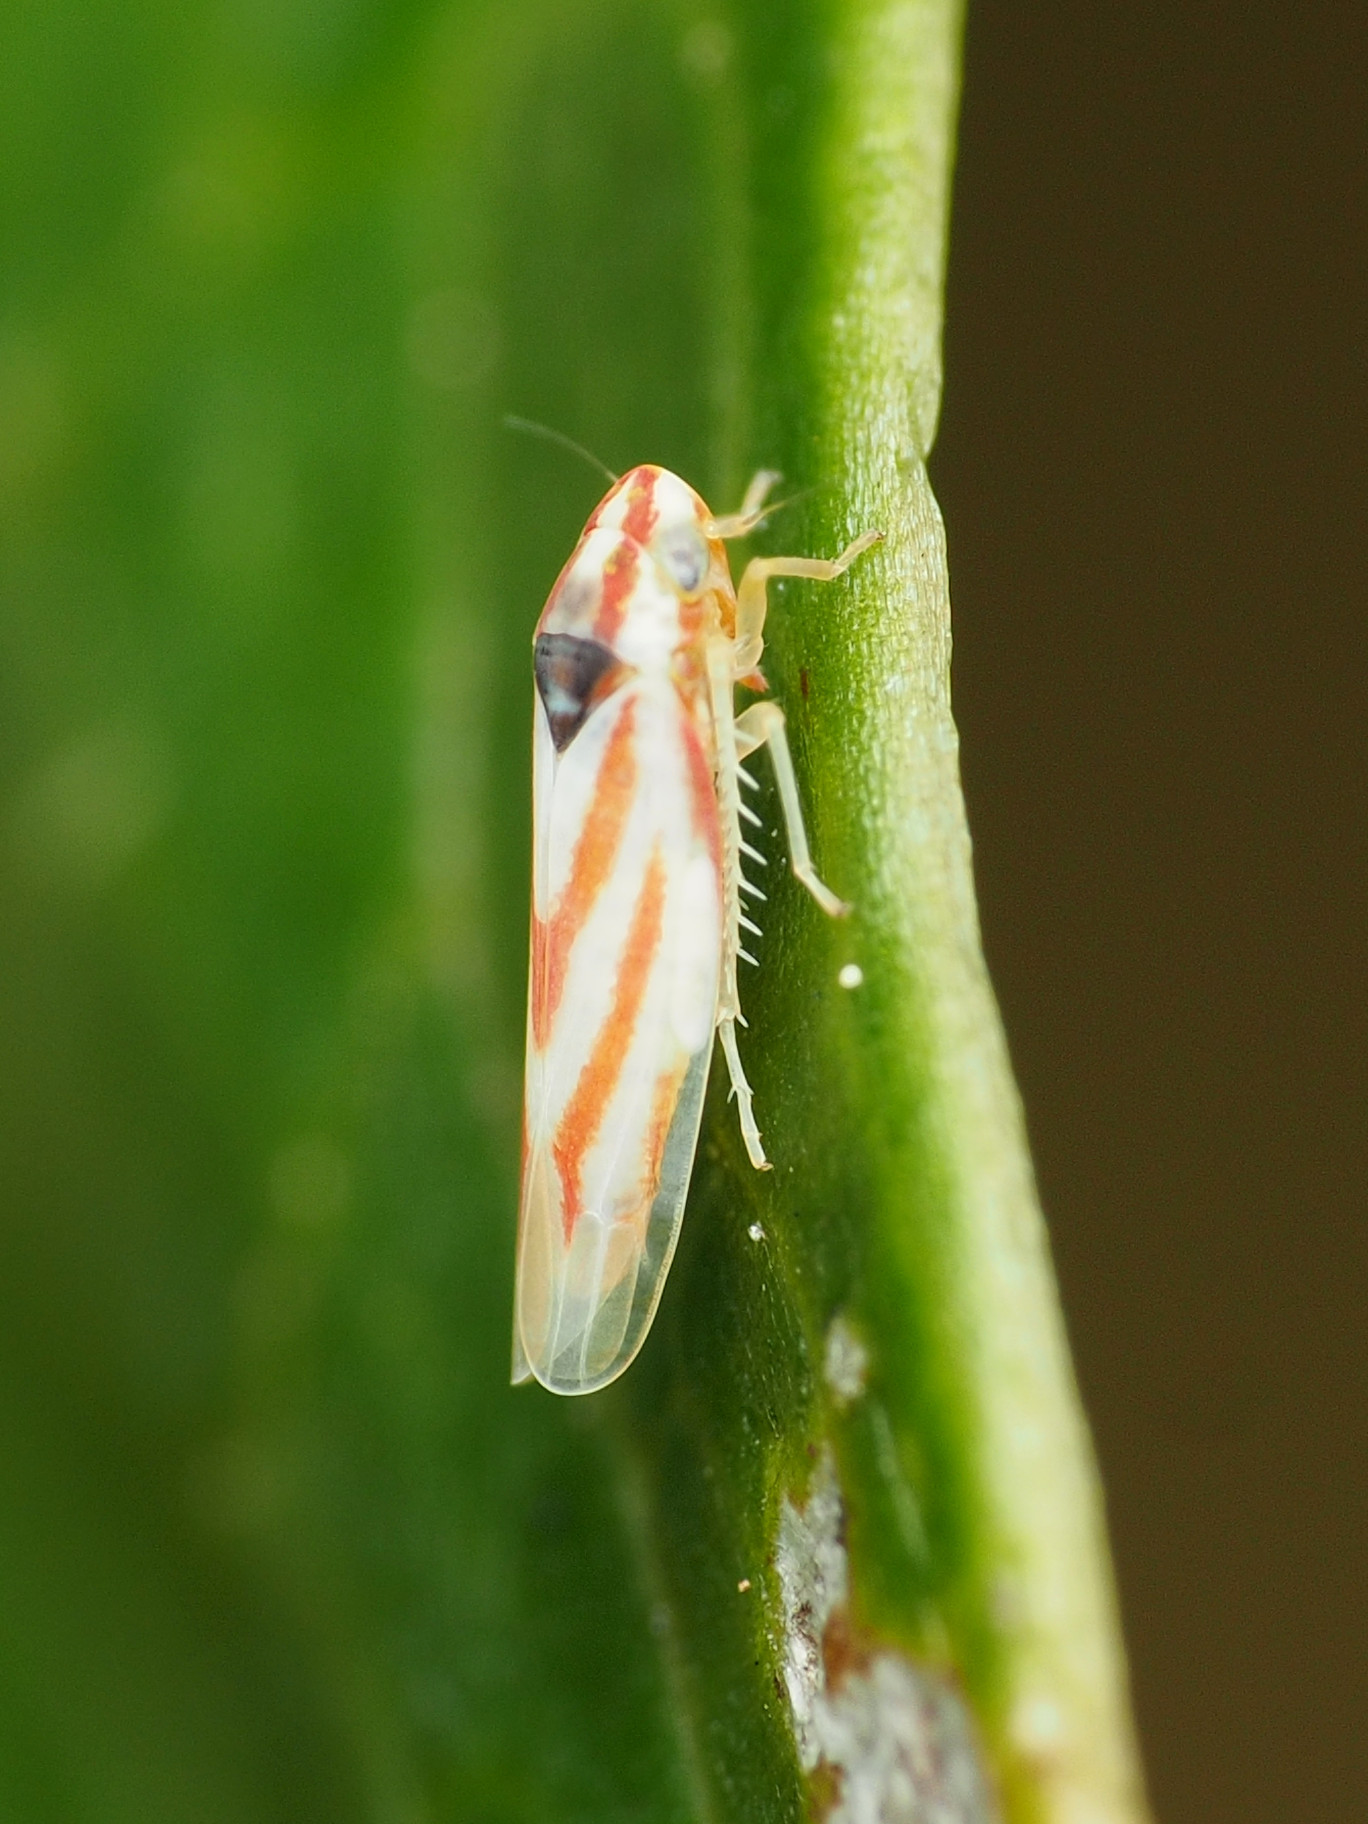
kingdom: Animalia
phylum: Arthropoda
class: Insecta
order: Hemiptera
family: Cicadellidae
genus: Erythridula
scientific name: Erythridula noeva
